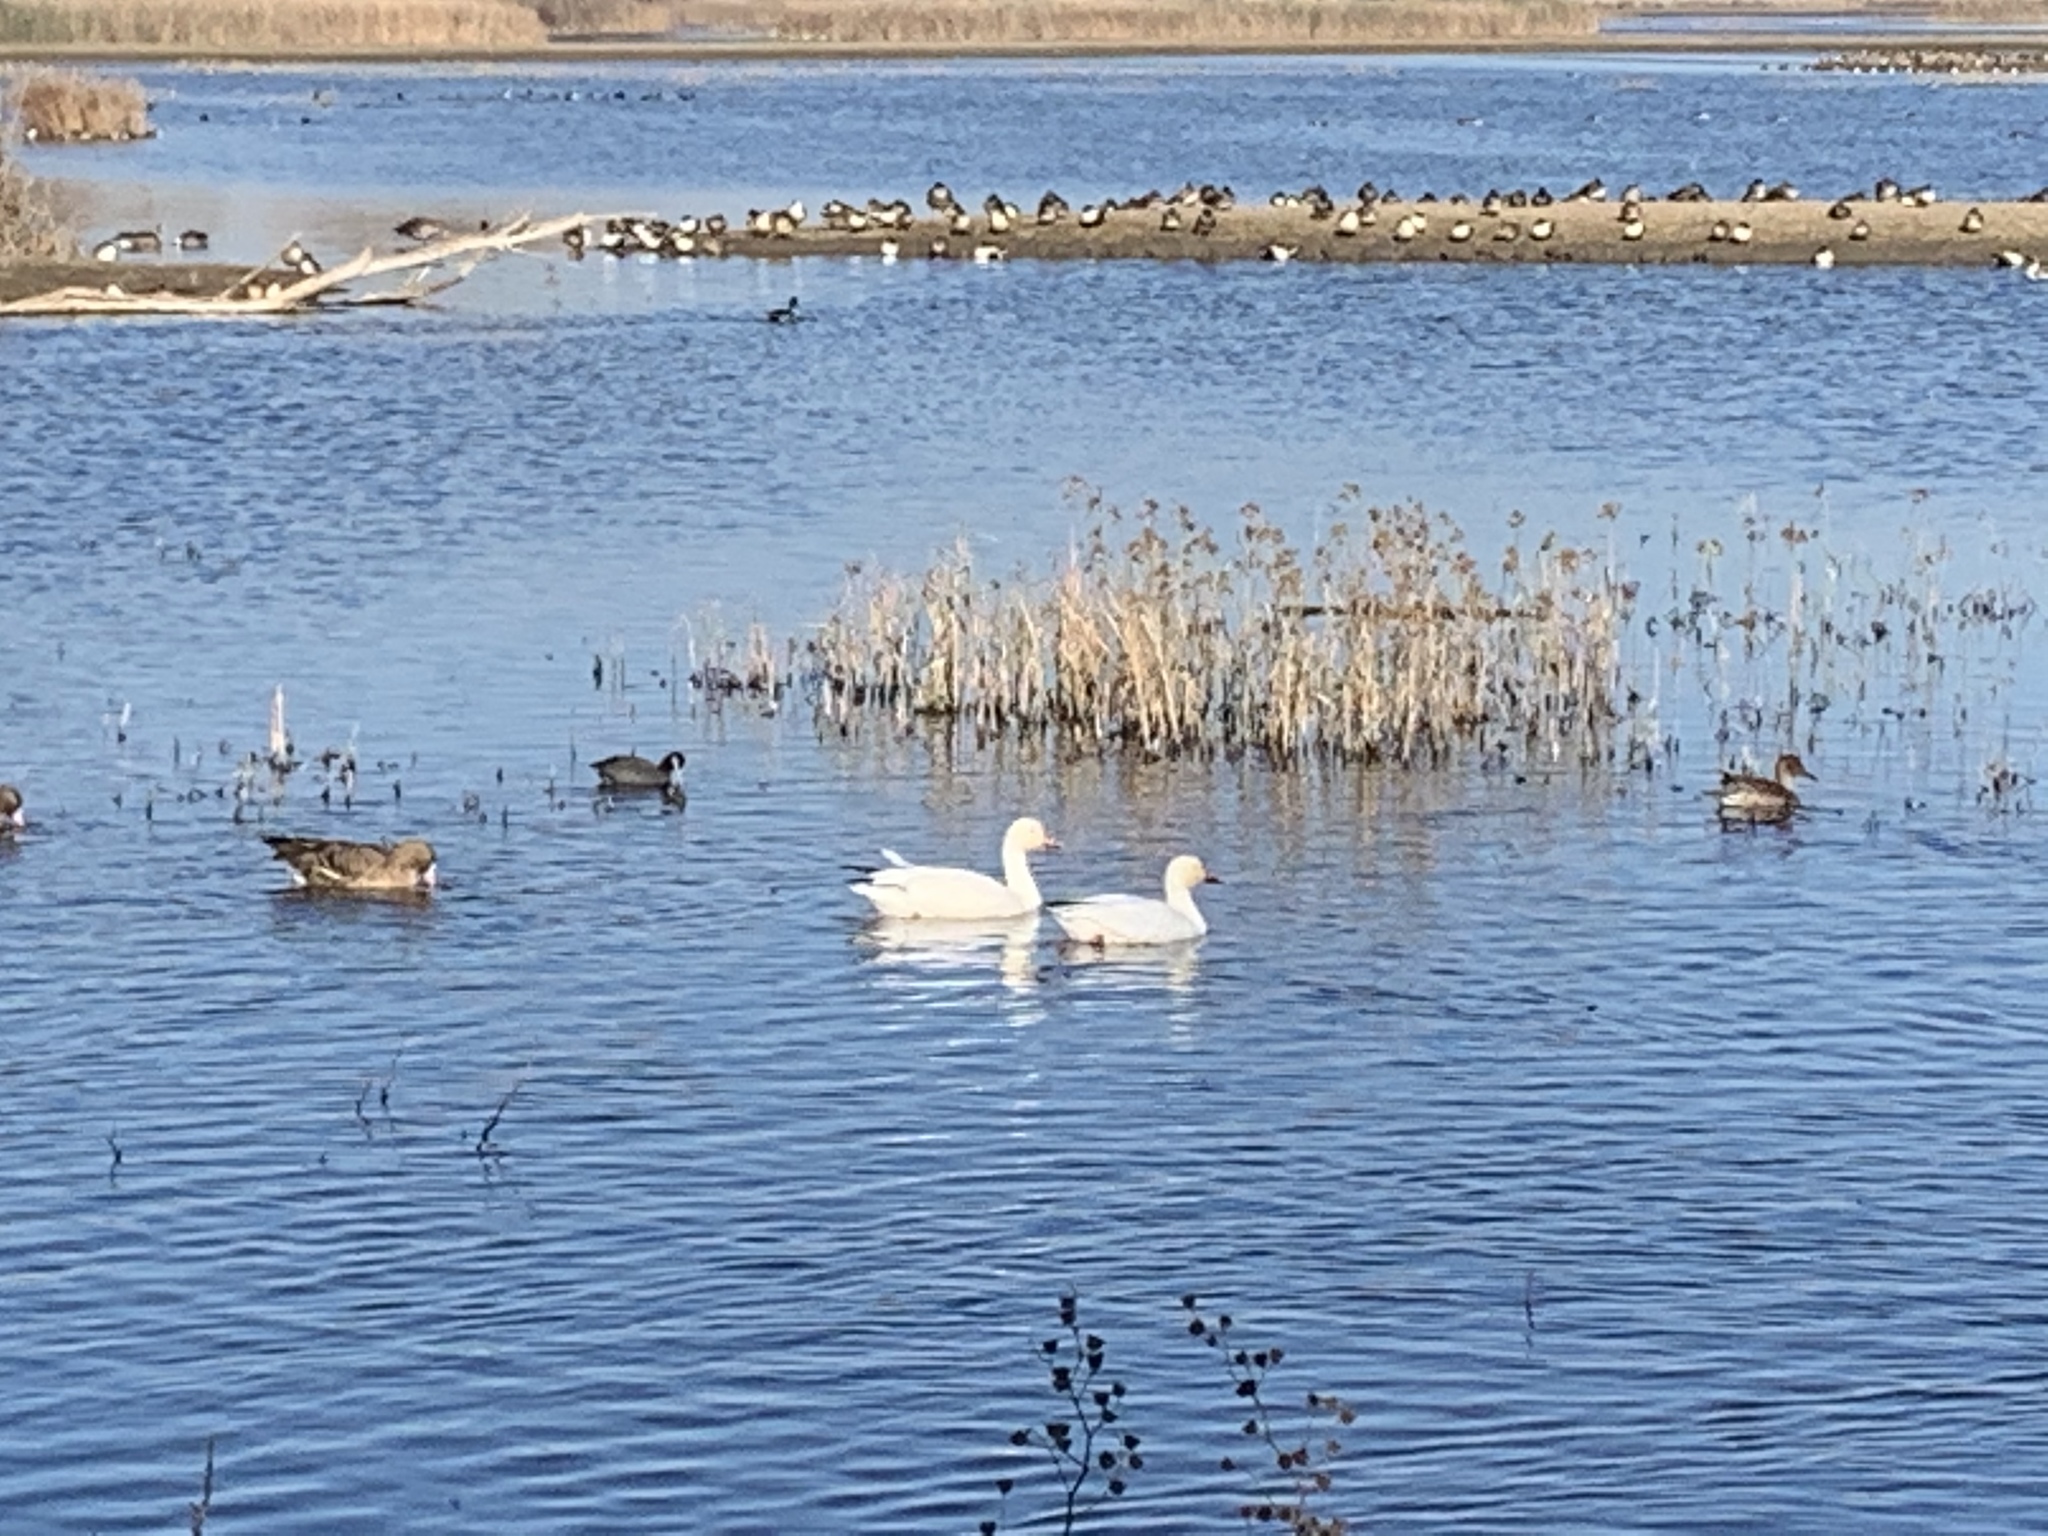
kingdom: Animalia
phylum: Chordata
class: Aves
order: Anseriformes
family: Anatidae
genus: Anser
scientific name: Anser caerulescens
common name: Snow goose
